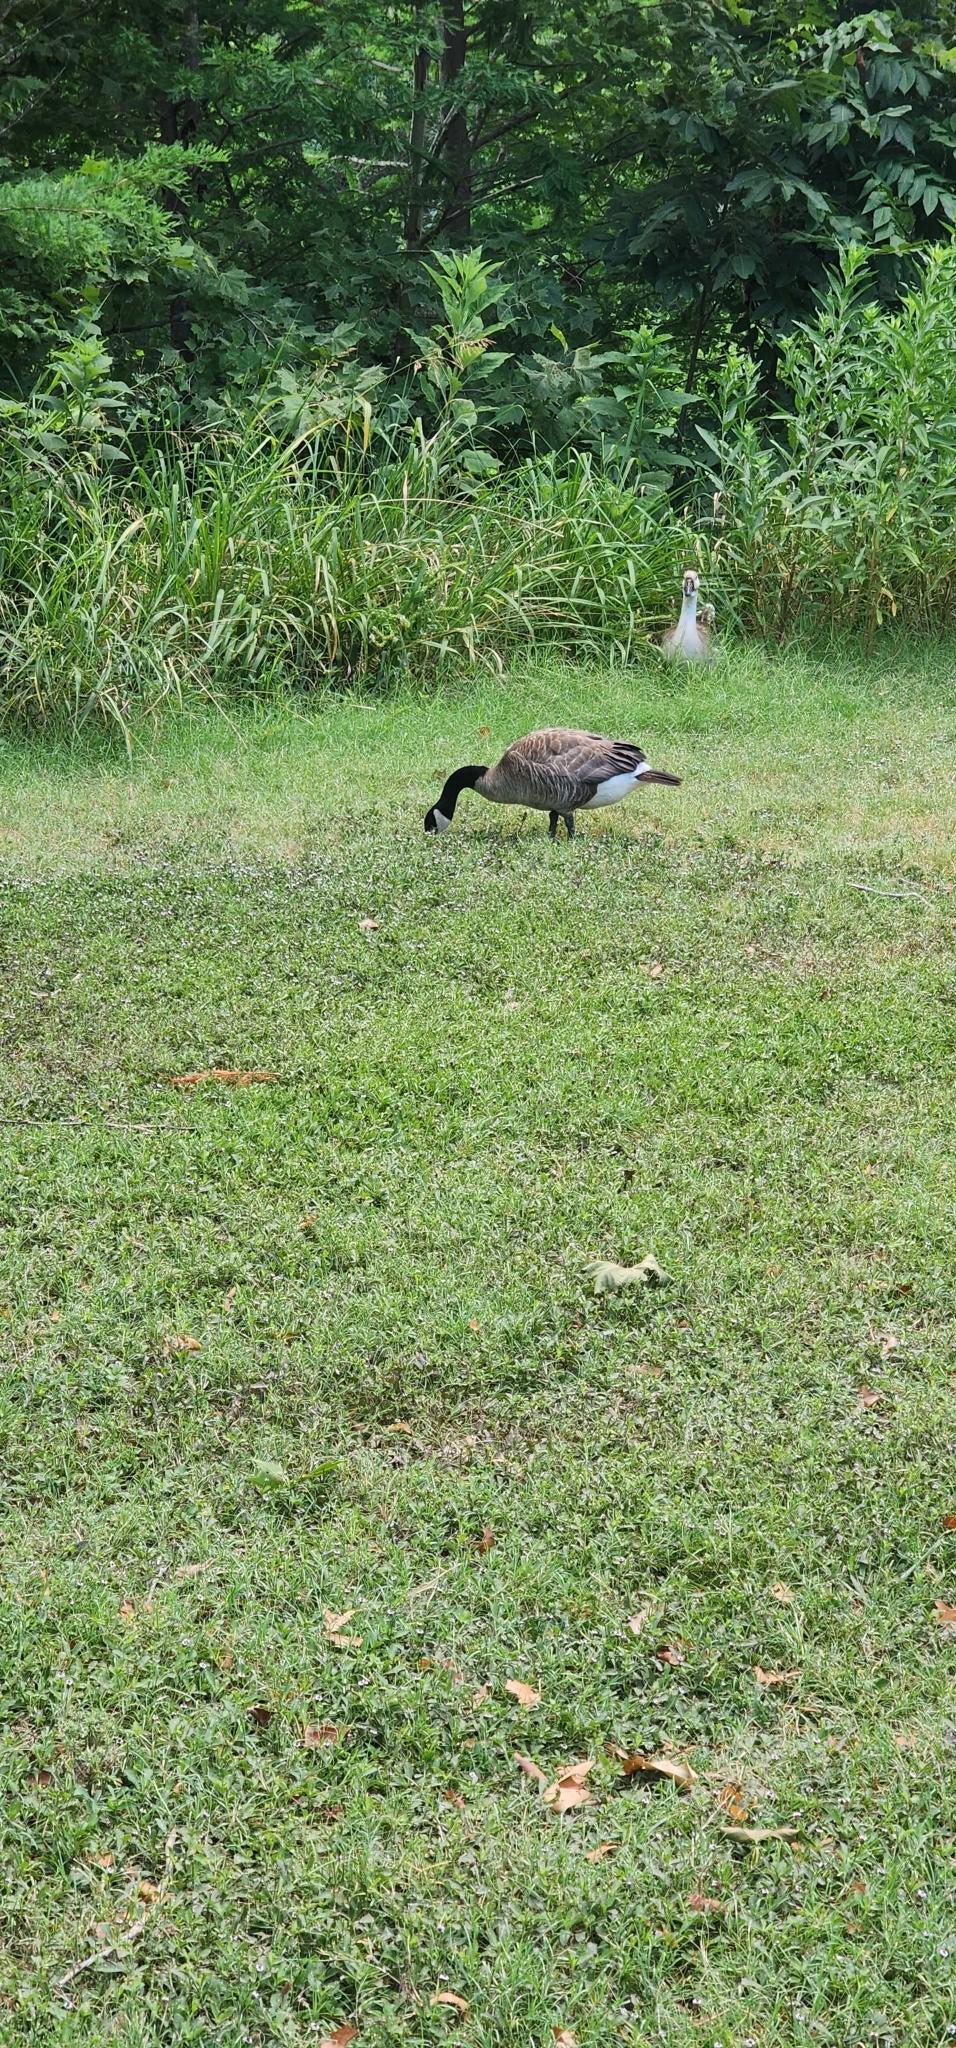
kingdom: Animalia
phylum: Chordata
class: Aves
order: Anseriformes
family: Anatidae
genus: Branta
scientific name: Branta canadensis
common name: Canada goose
